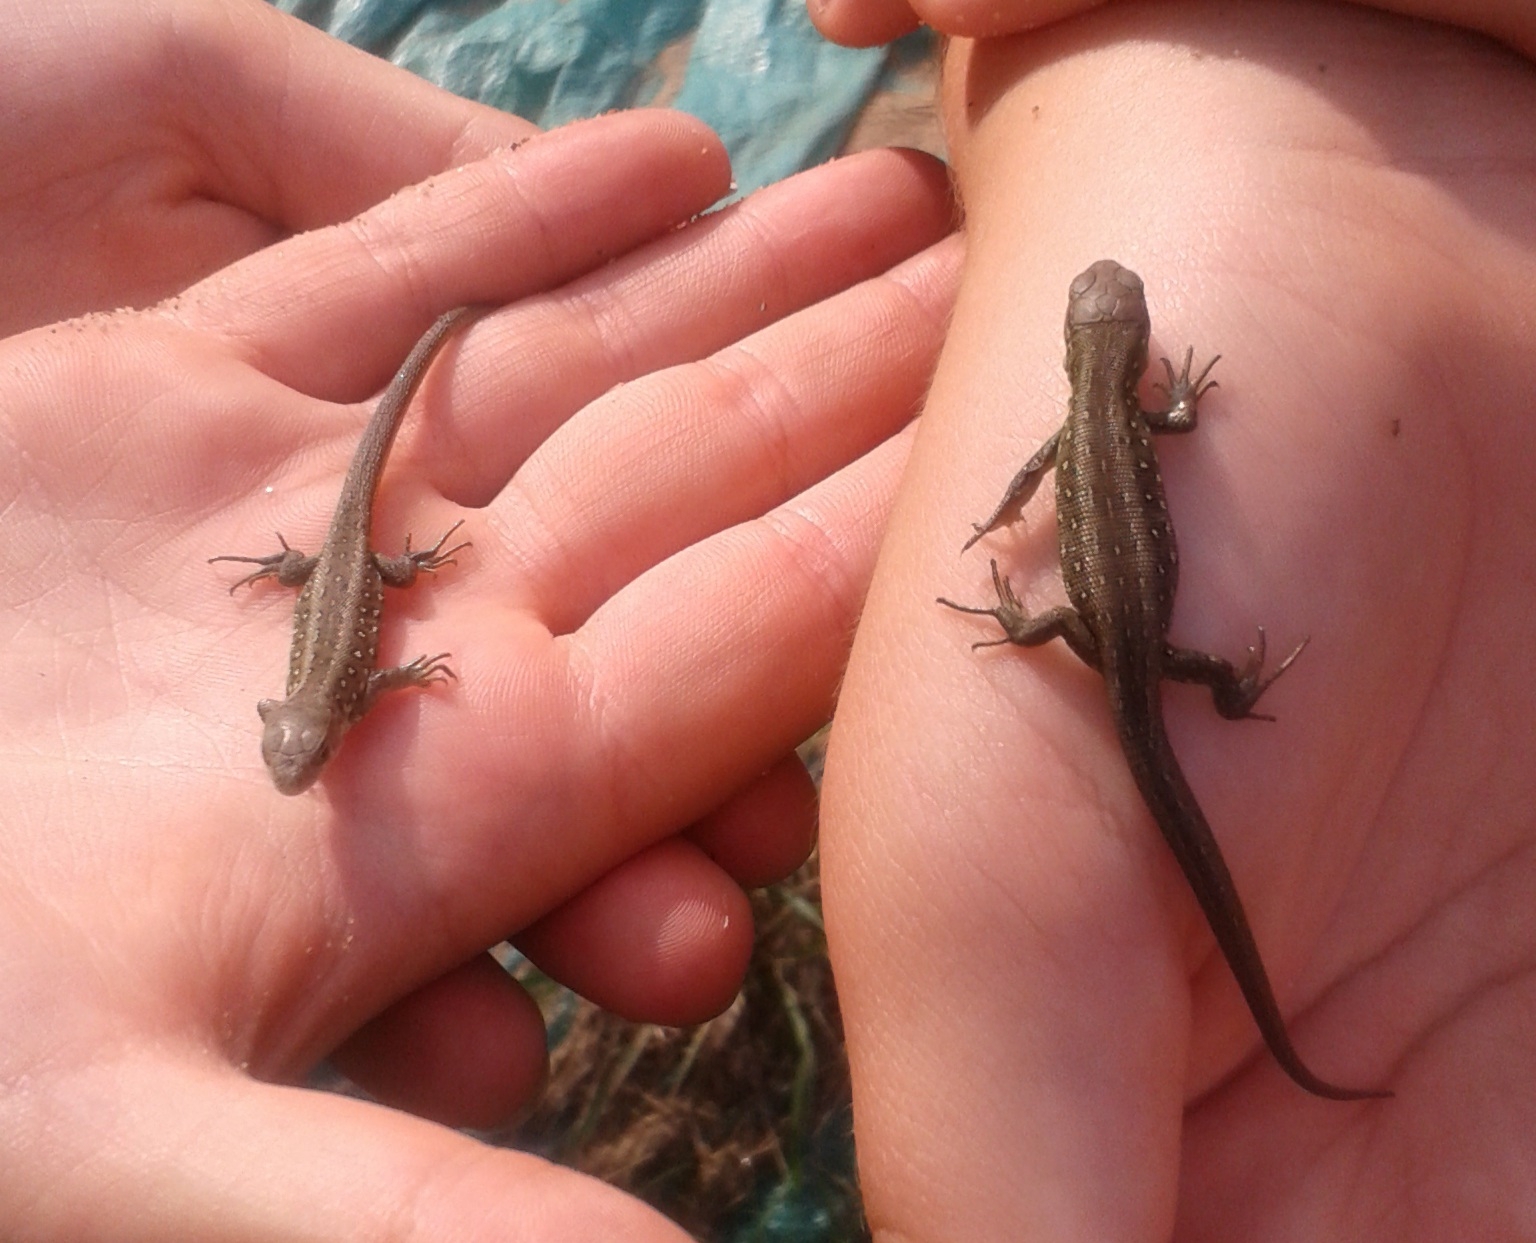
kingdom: Animalia
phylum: Chordata
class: Squamata
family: Lacertidae
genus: Lacerta
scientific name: Lacerta agilis
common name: Sand lizard
